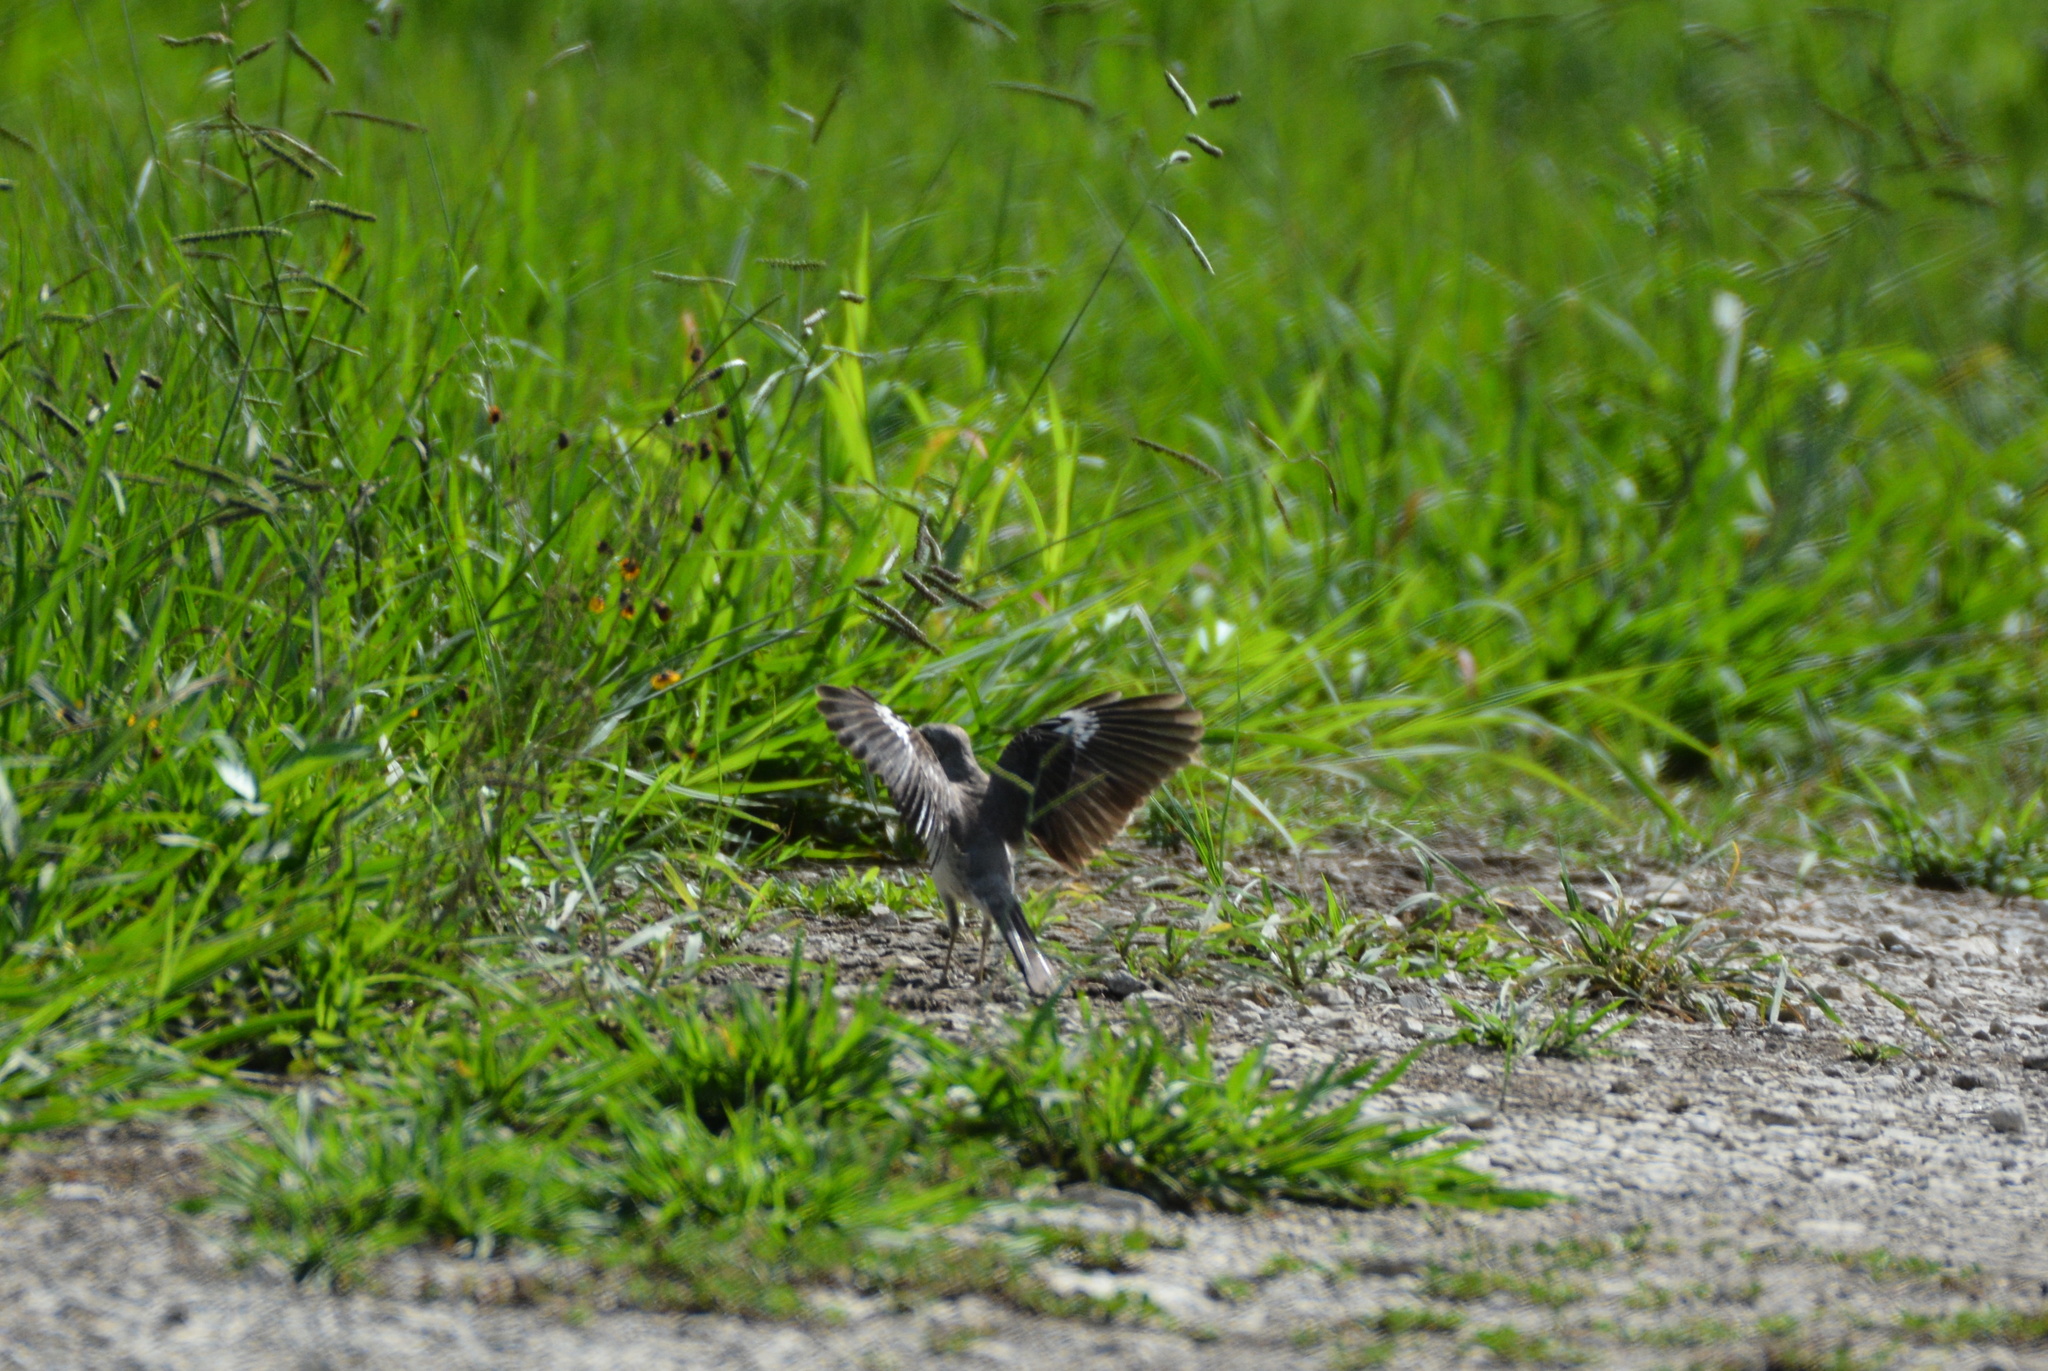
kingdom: Animalia
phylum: Chordata
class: Aves
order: Passeriformes
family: Mimidae
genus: Mimus
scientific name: Mimus polyglottos
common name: Northern mockingbird
